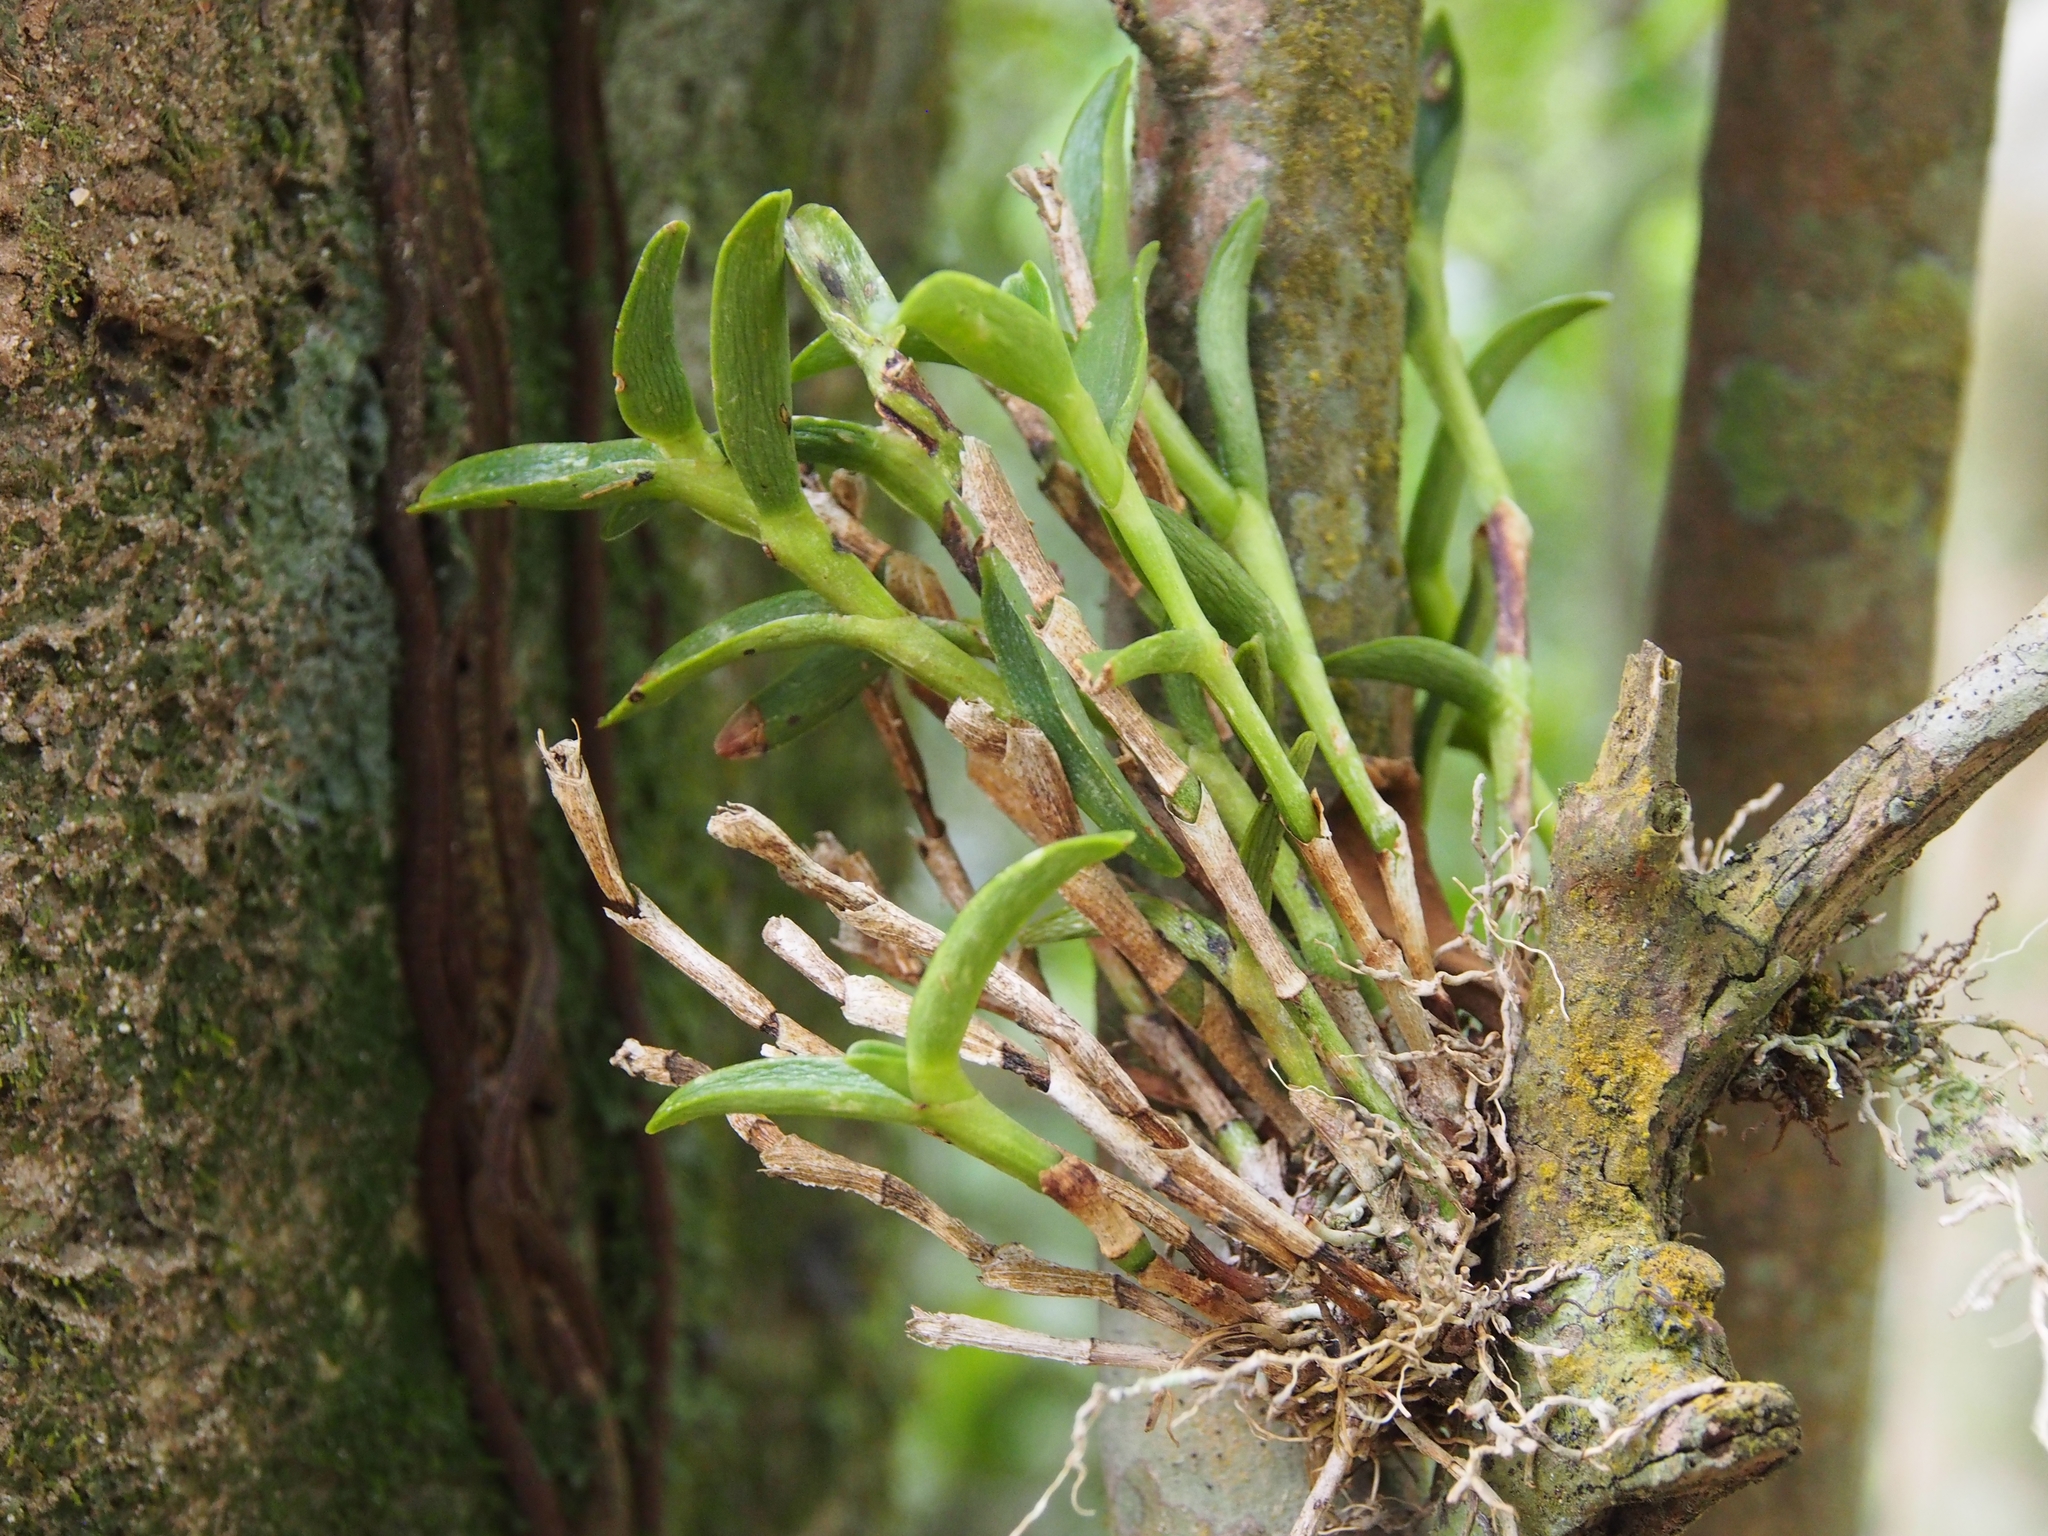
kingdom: Plantae
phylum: Tracheophyta
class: Liliopsida
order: Asparagales
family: Orchidaceae
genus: Epidendrum
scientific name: Epidendrum barbeyanum
